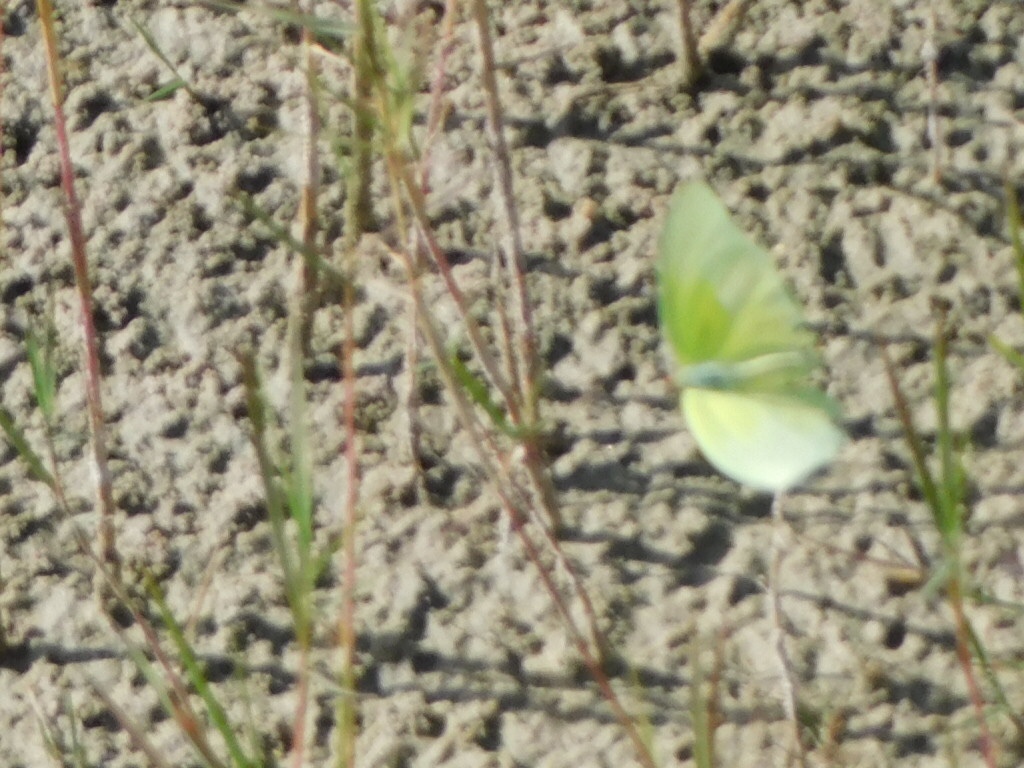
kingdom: Animalia
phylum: Arthropoda
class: Insecta
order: Lepidoptera
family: Pieridae
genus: Aphrissa
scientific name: Aphrissa statira
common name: Statira sulphur
